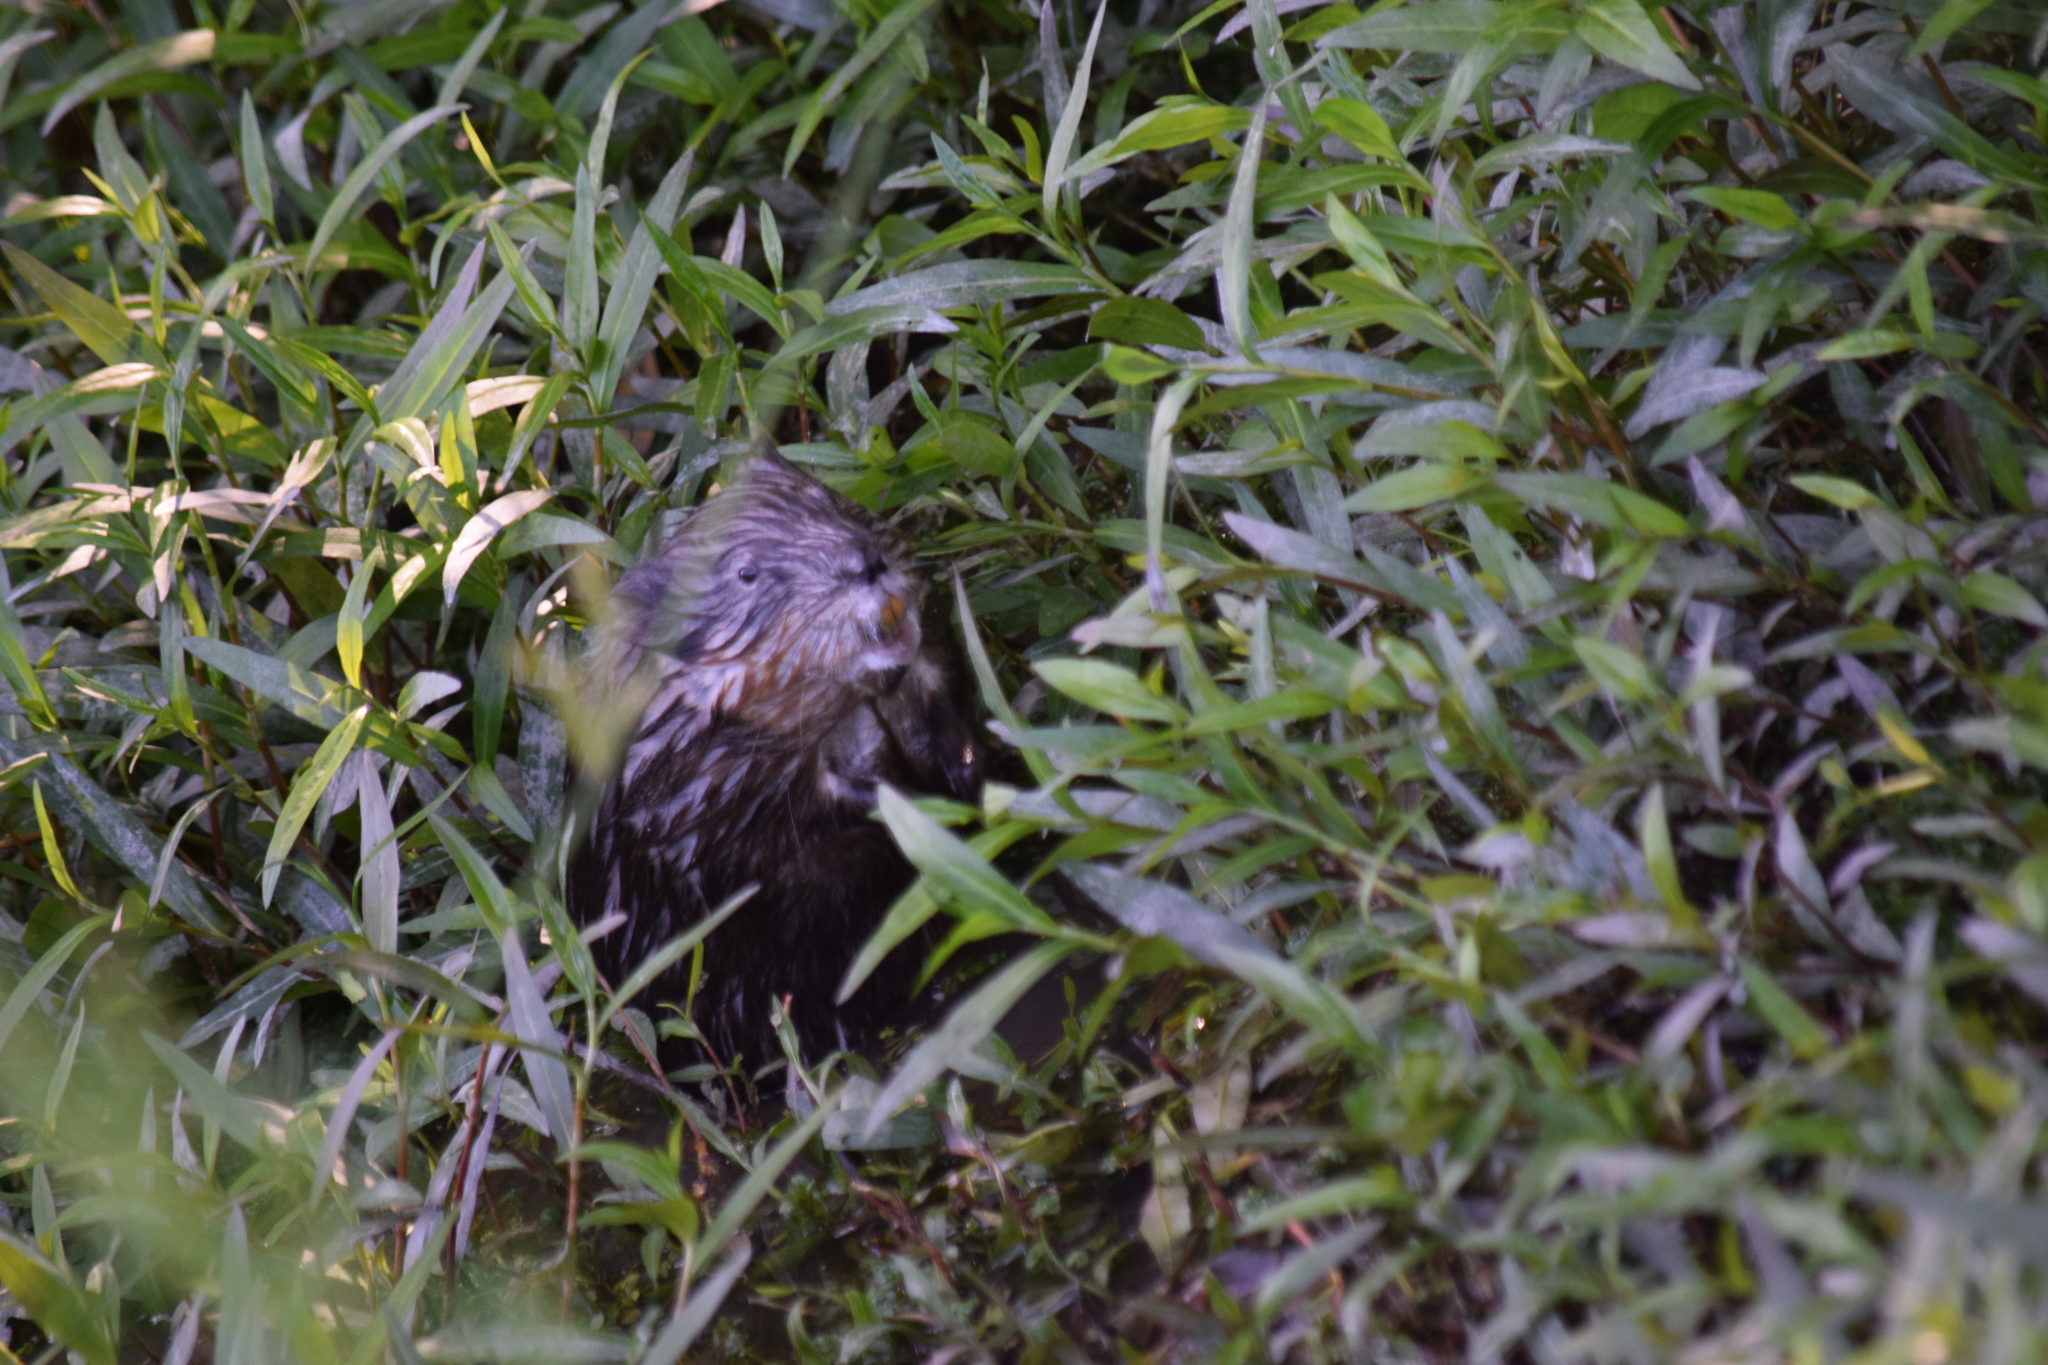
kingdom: Animalia
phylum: Chordata
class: Mammalia
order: Rodentia
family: Cricetidae
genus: Ondatra
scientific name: Ondatra zibethicus
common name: Muskrat
